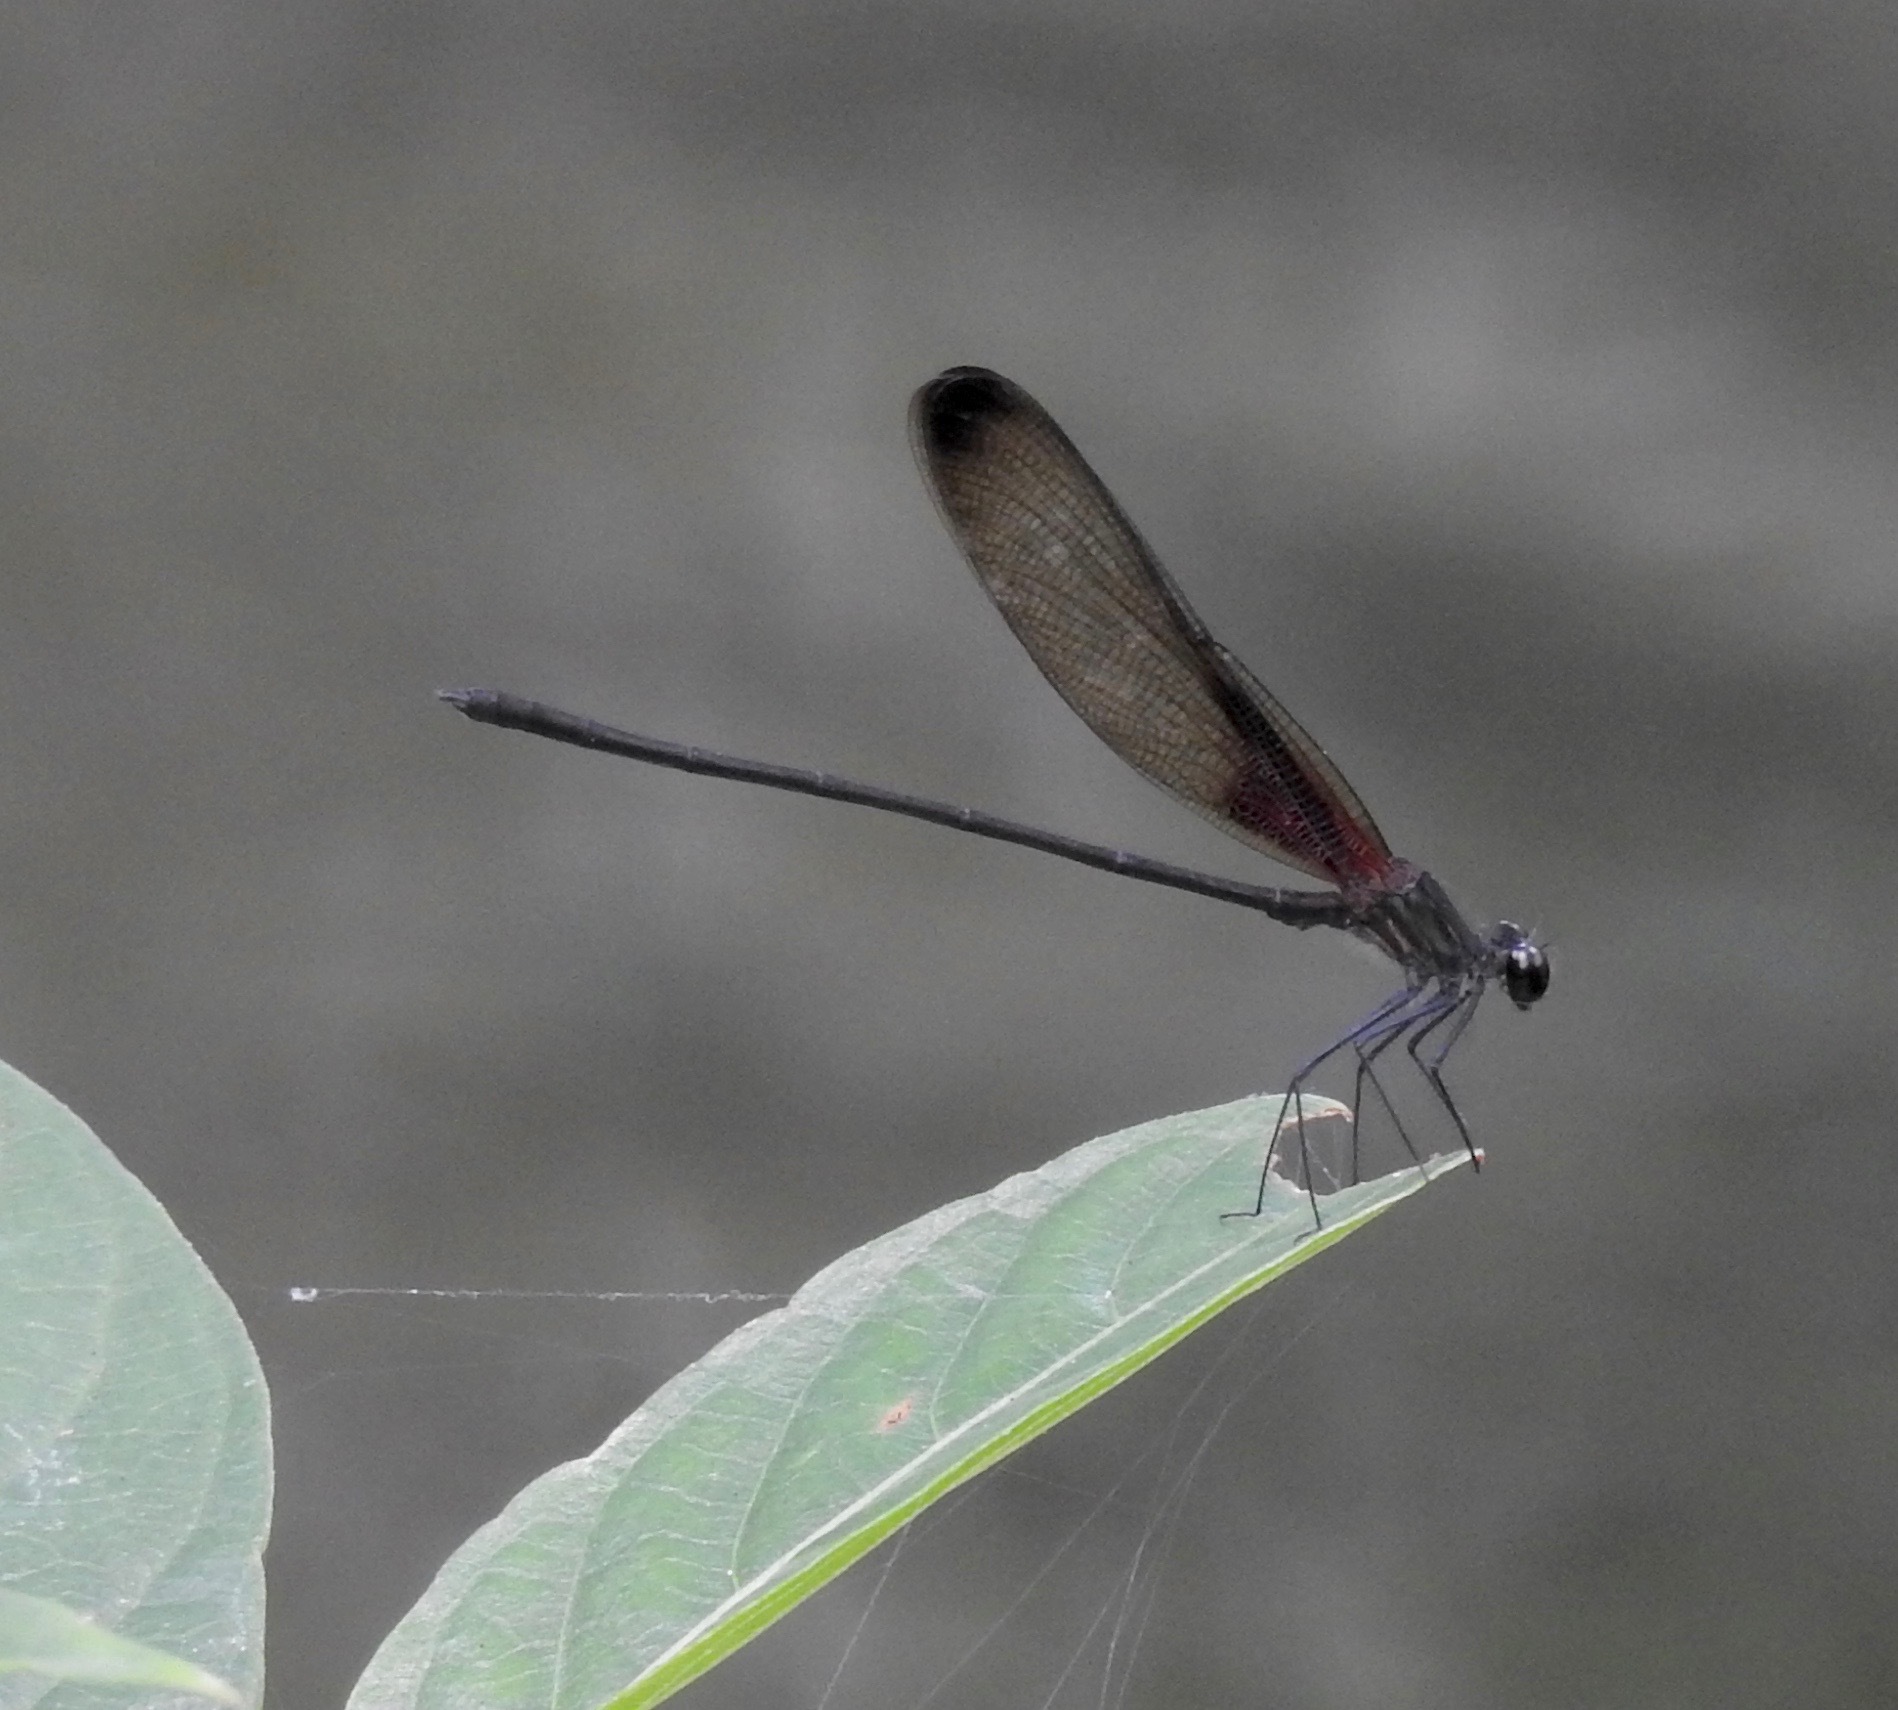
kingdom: Animalia
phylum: Arthropoda
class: Insecta
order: Odonata
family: Calopterygidae
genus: Hetaerina
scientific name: Hetaerina titia
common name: Smoky rubyspot
